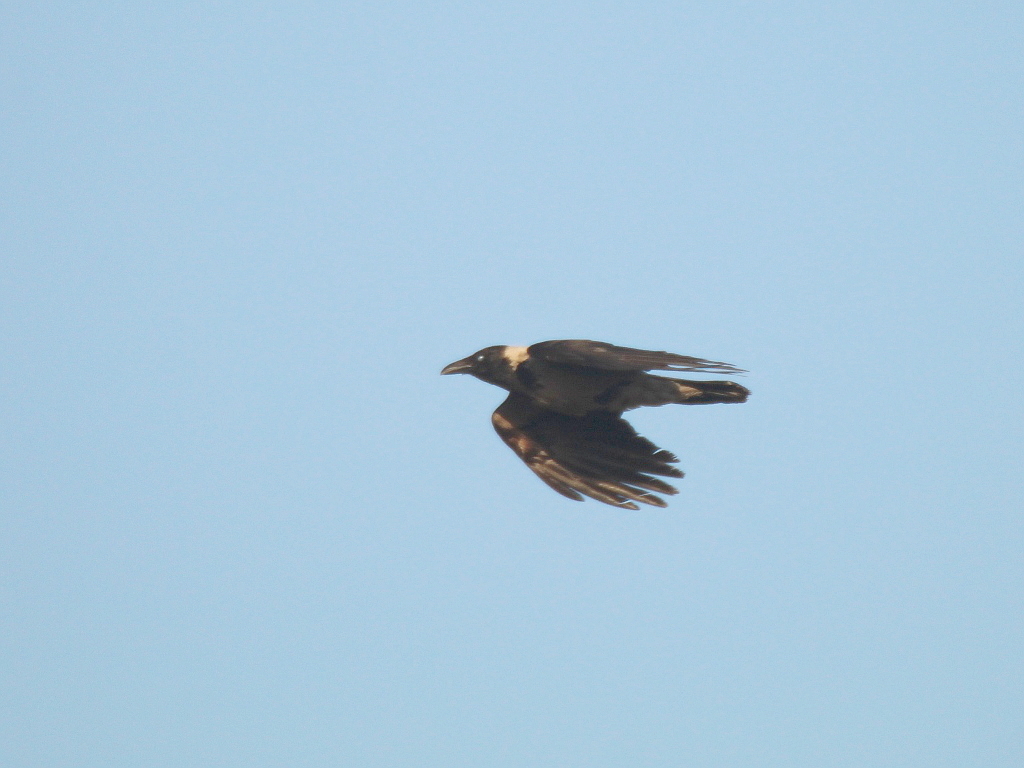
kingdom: Animalia
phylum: Chordata
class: Aves
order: Passeriformes
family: Corvidae
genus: Corvus
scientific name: Corvus cornix
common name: Hooded crow
